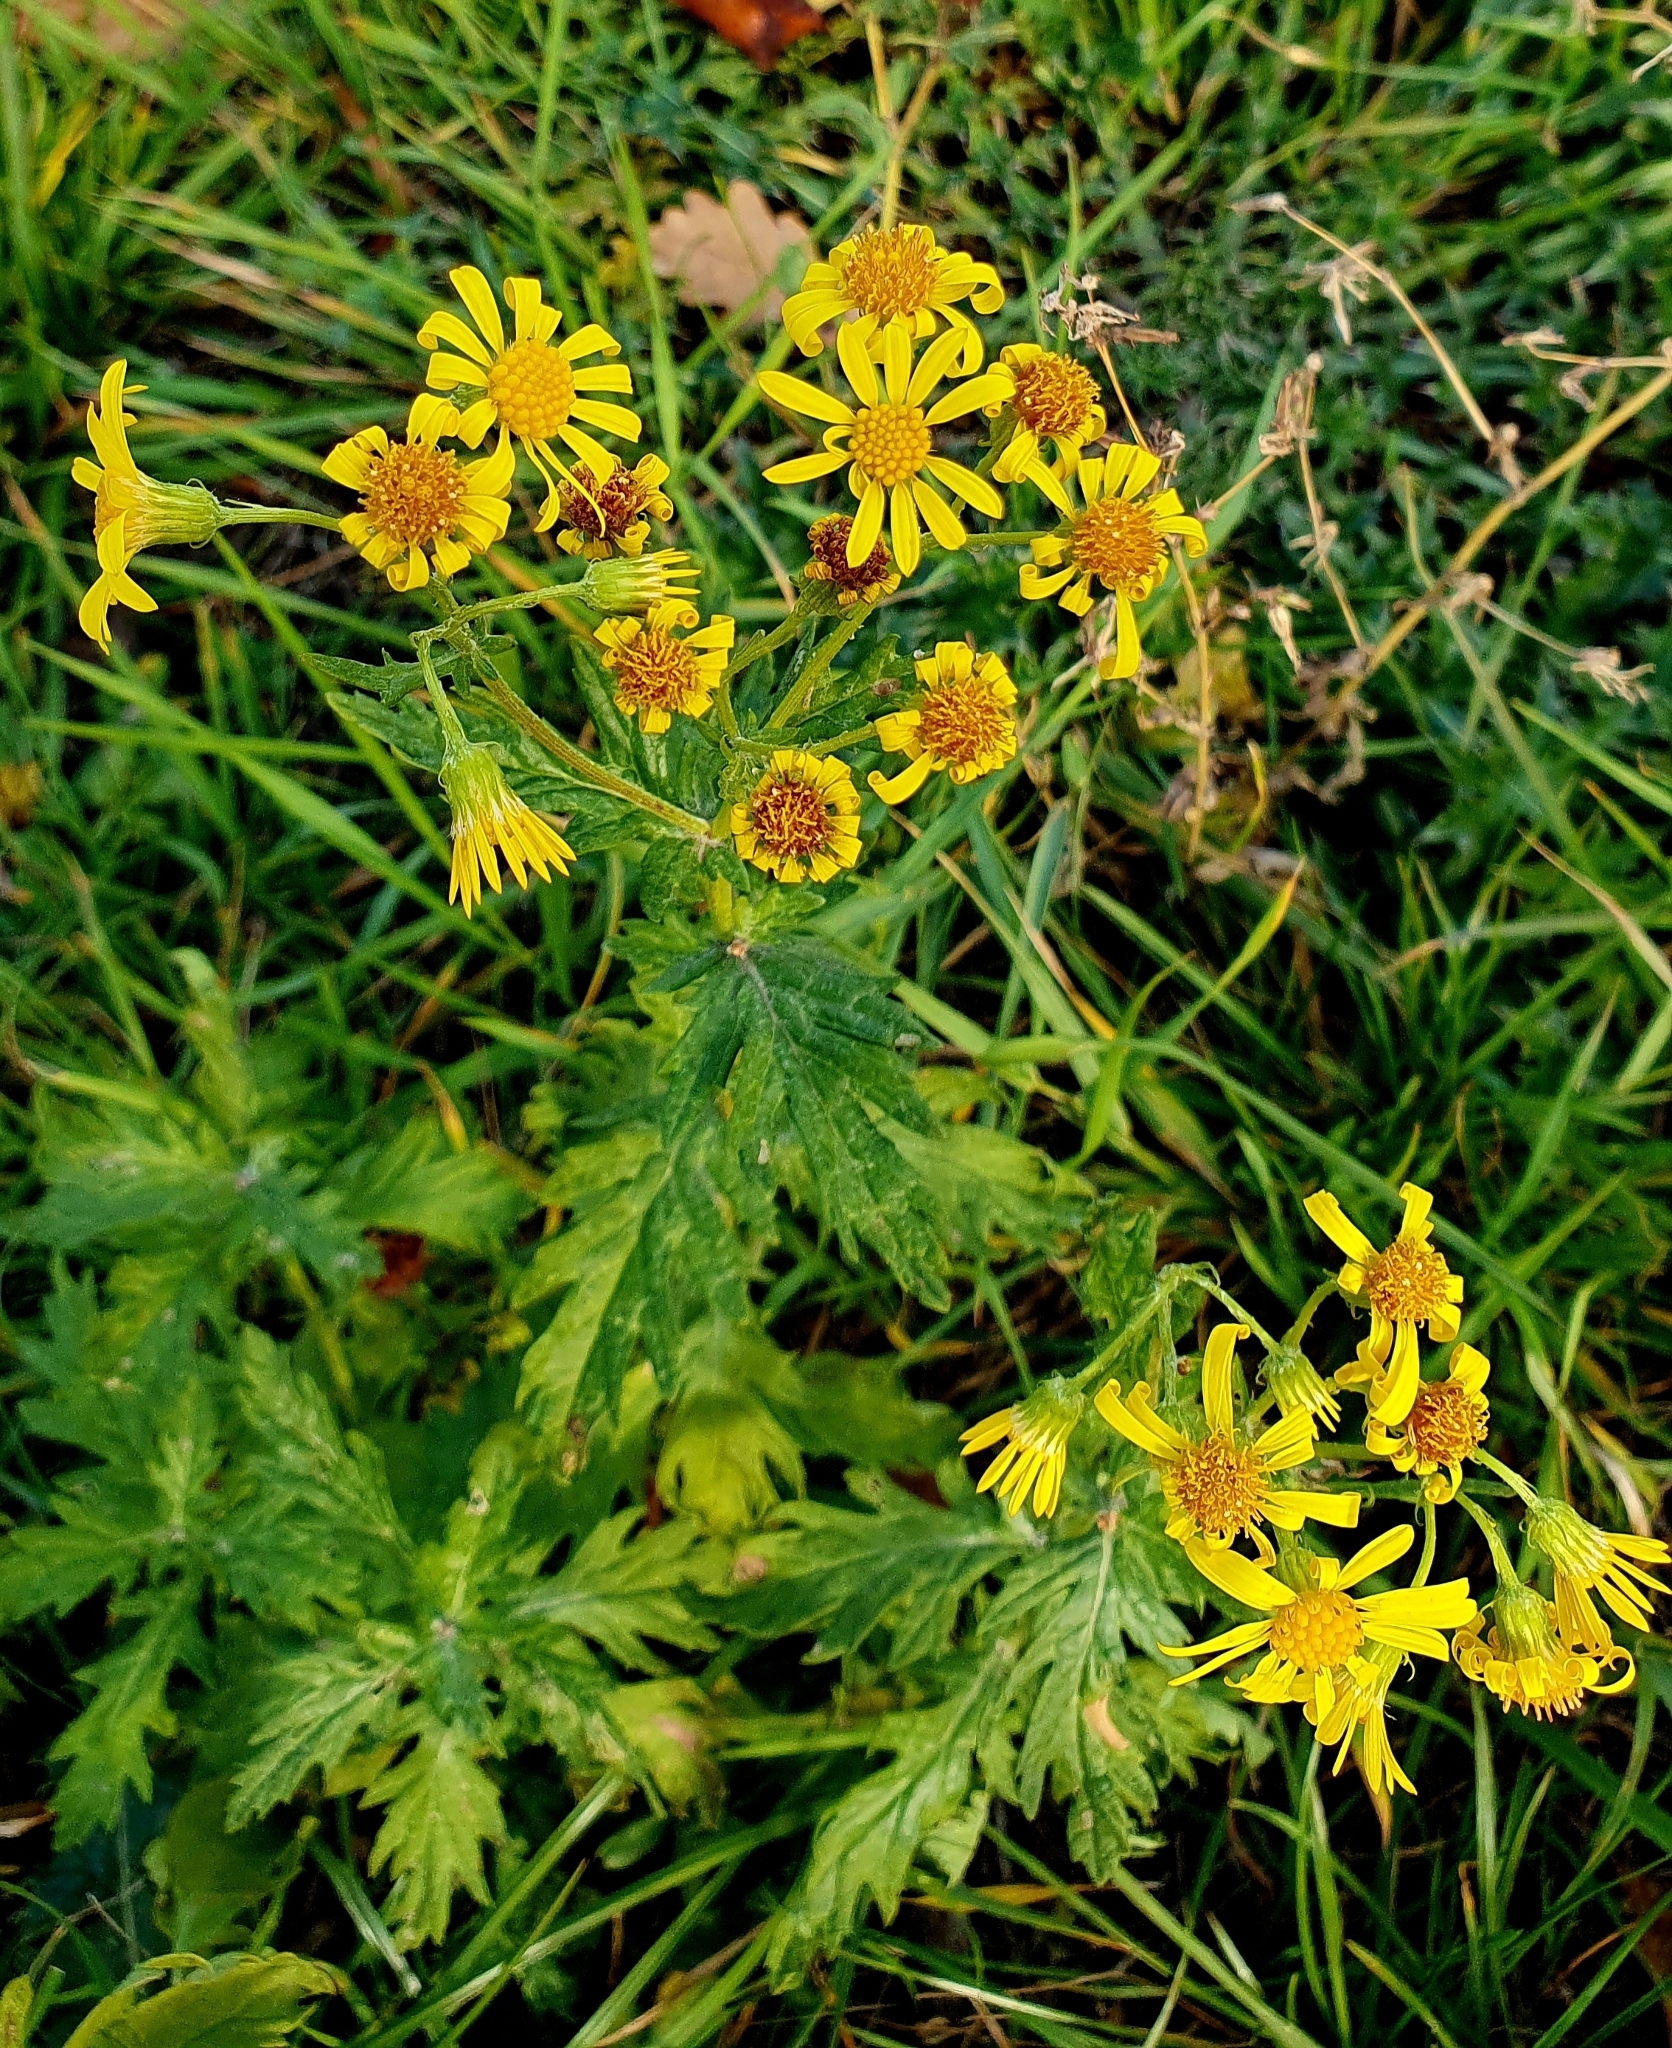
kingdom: Plantae
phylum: Tracheophyta
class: Magnoliopsida
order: Asterales
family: Asteraceae
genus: Jacobaea
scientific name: Jacobaea erucifolia
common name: Hoary ragwort
